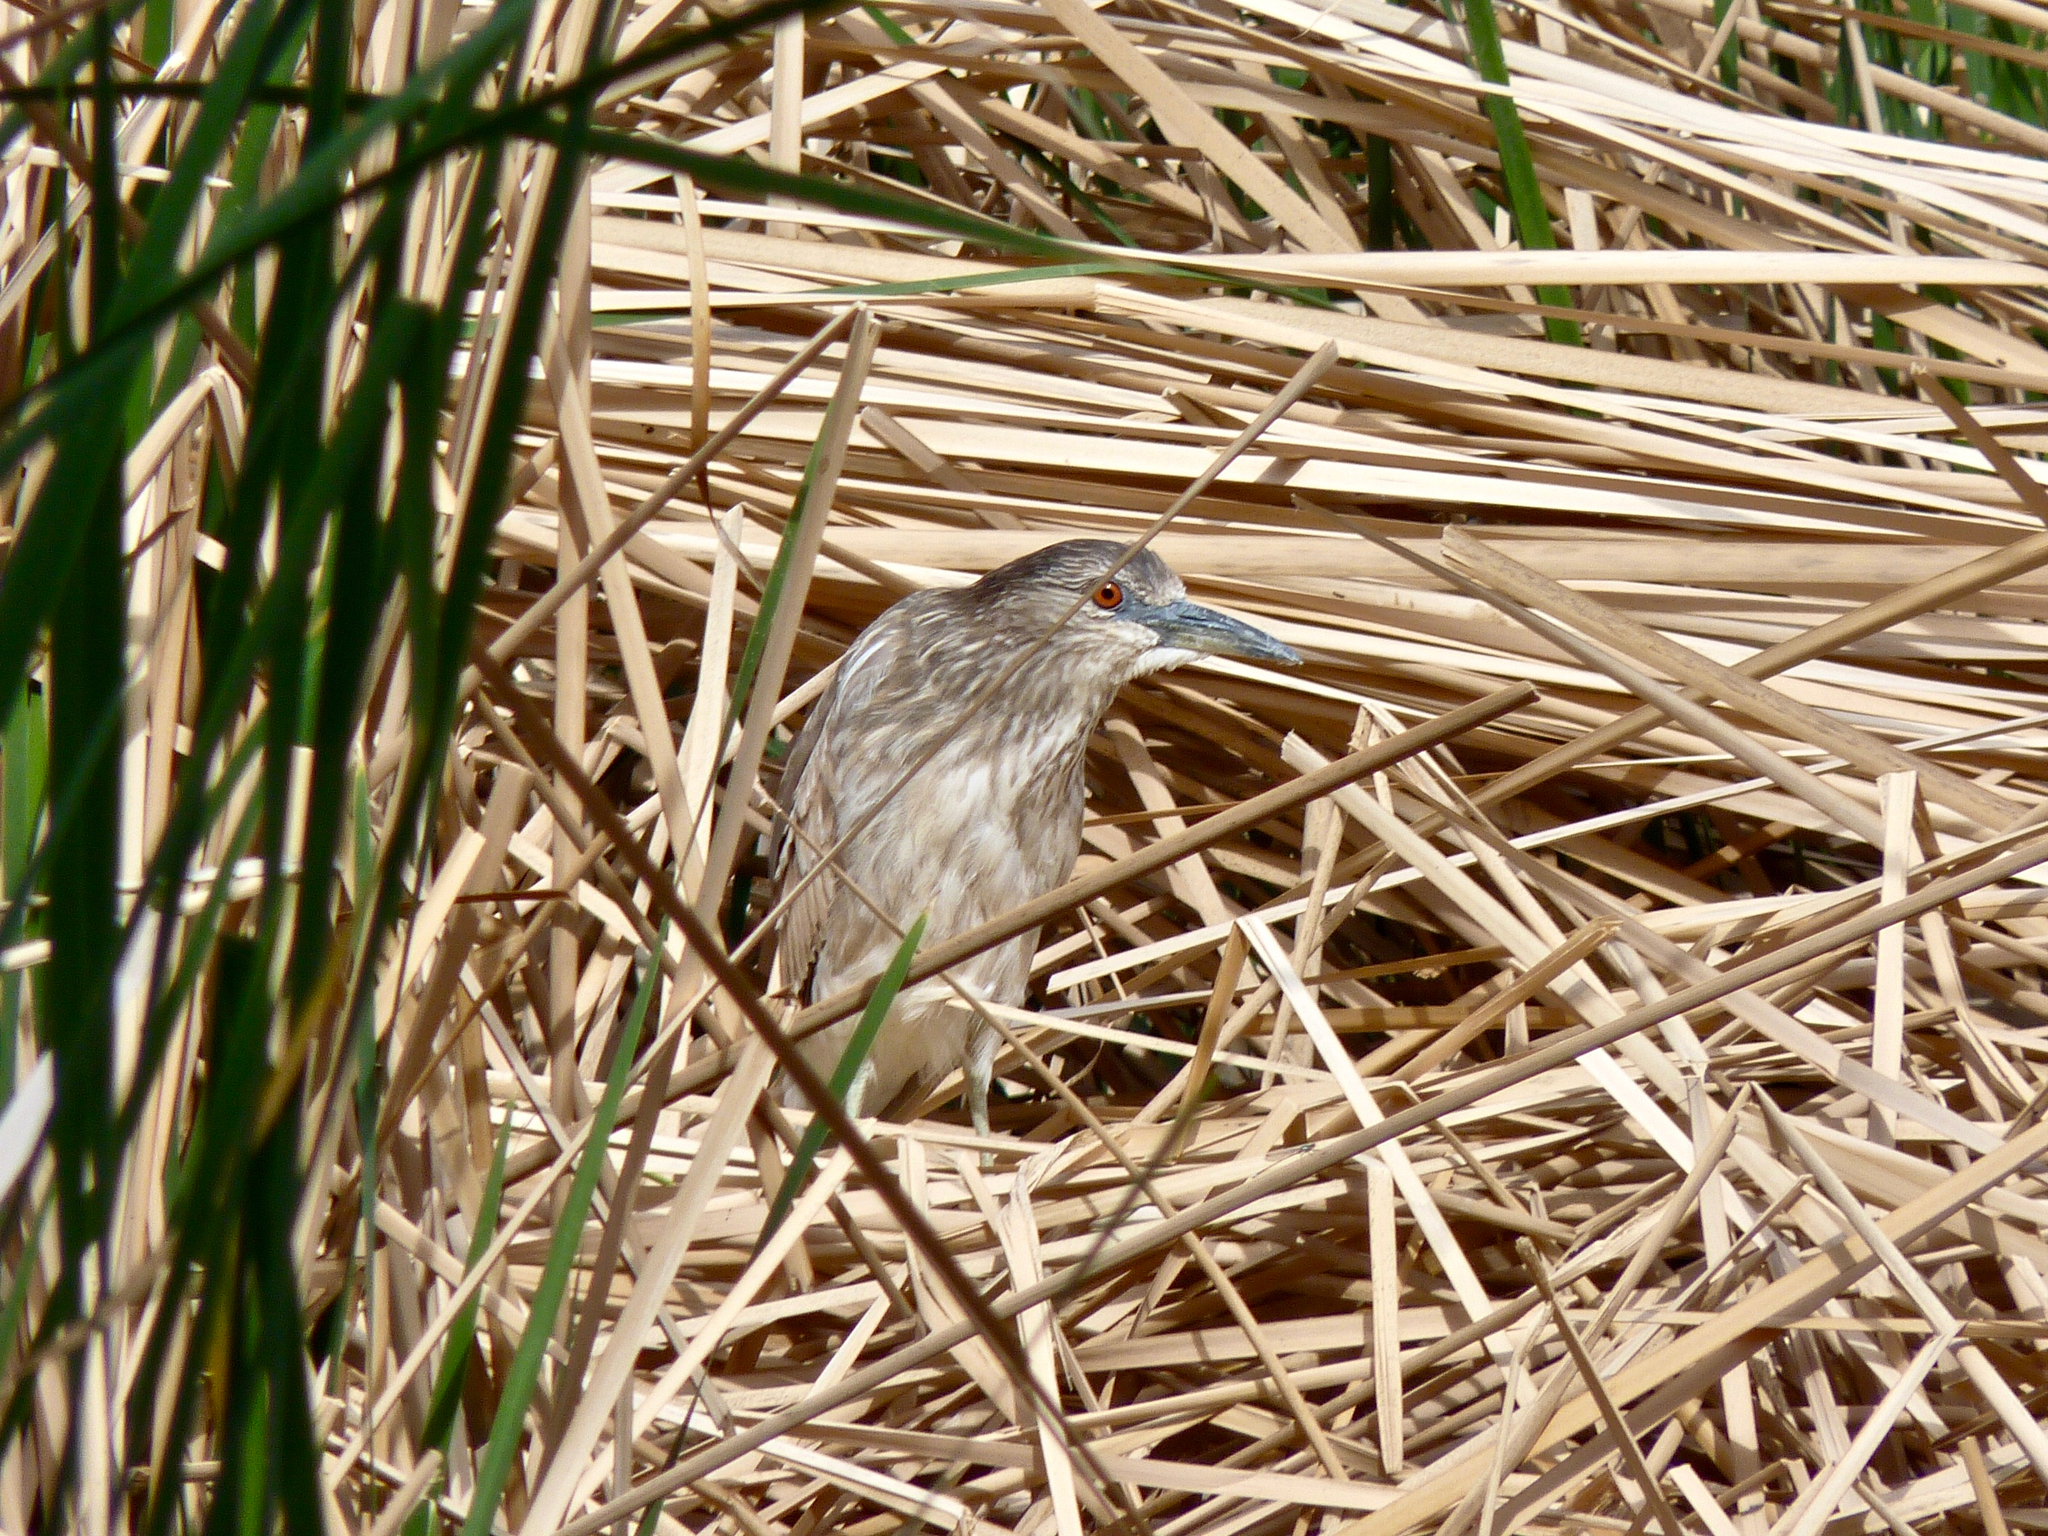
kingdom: Animalia
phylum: Chordata
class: Aves
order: Pelecaniformes
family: Ardeidae
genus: Nycticorax
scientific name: Nycticorax nycticorax
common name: Black-crowned night heron
